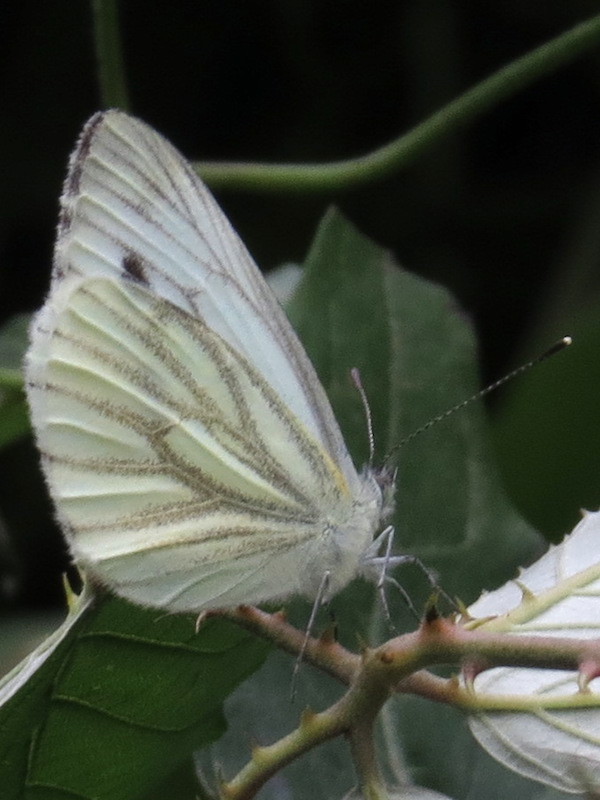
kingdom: Animalia
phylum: Arthropoda
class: Insecta
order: Lepidoptera
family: Pieridae
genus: Pieris
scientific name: Pieris napi
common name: Green-veined white
